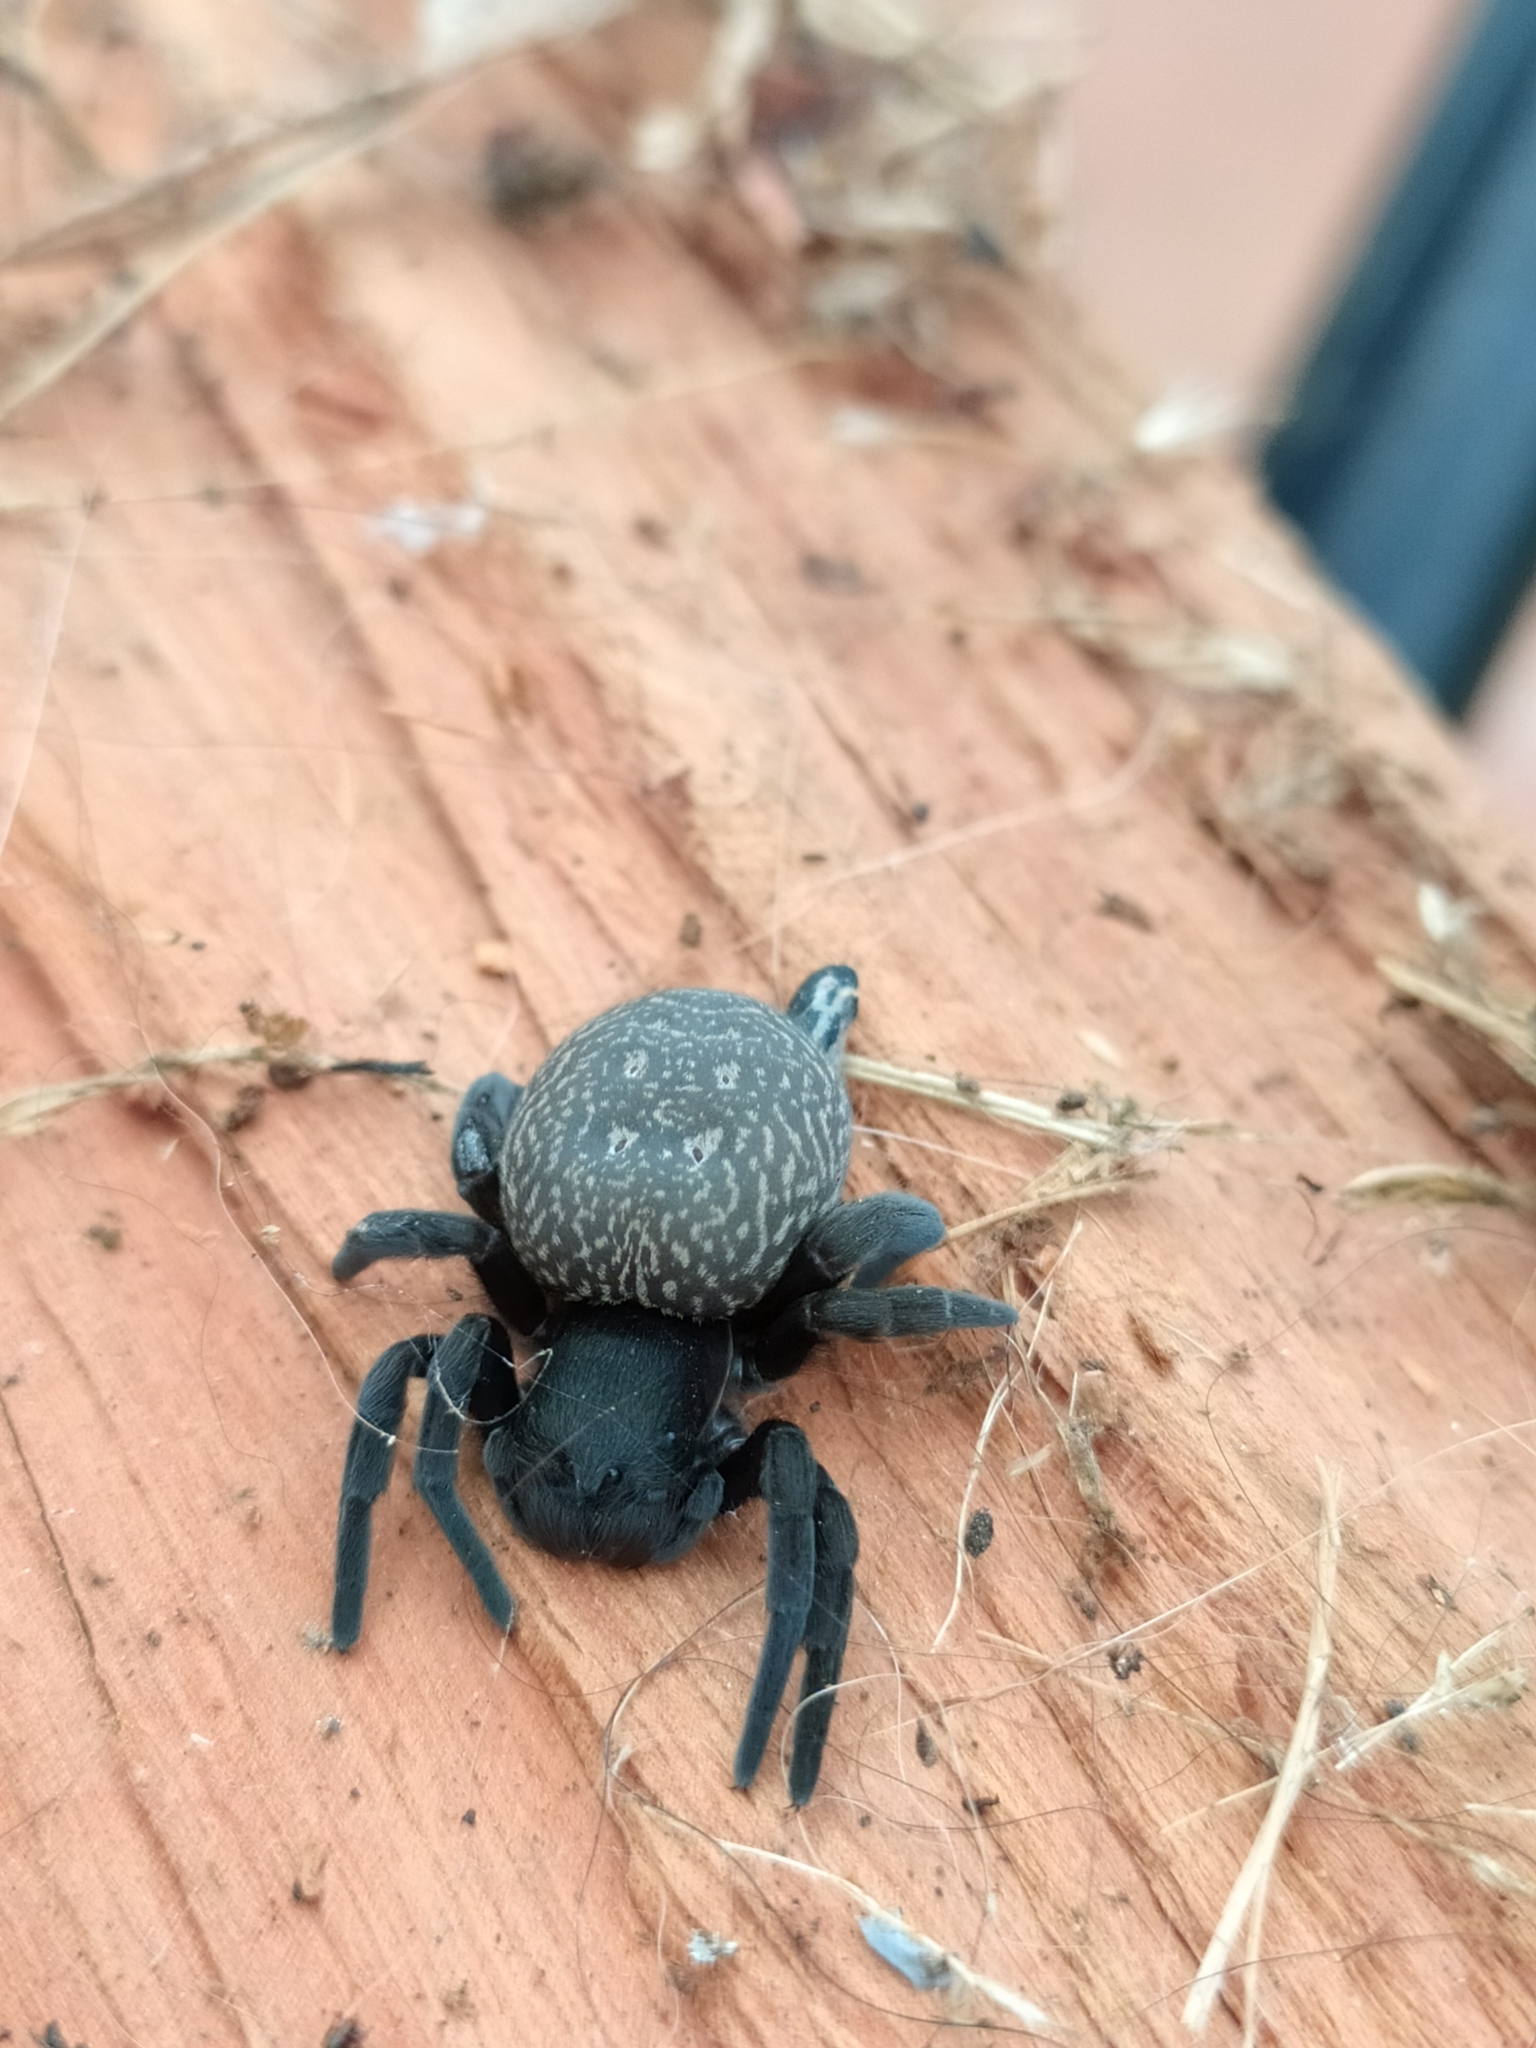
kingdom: Animalia
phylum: Arthropoda
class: Arachnida
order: Araneae
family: Eresidae
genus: Gandanameno
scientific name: Gandanameno spenceri
